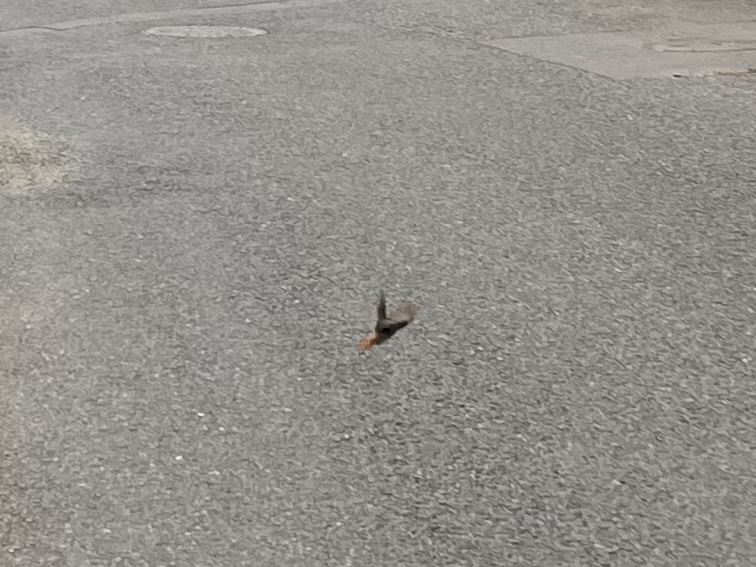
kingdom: Animalia
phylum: Chordata
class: Aves
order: Passeriformes
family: Muscicapidae
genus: Phoenicurus
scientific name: Phoenicurus ochruros
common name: Black redstart
